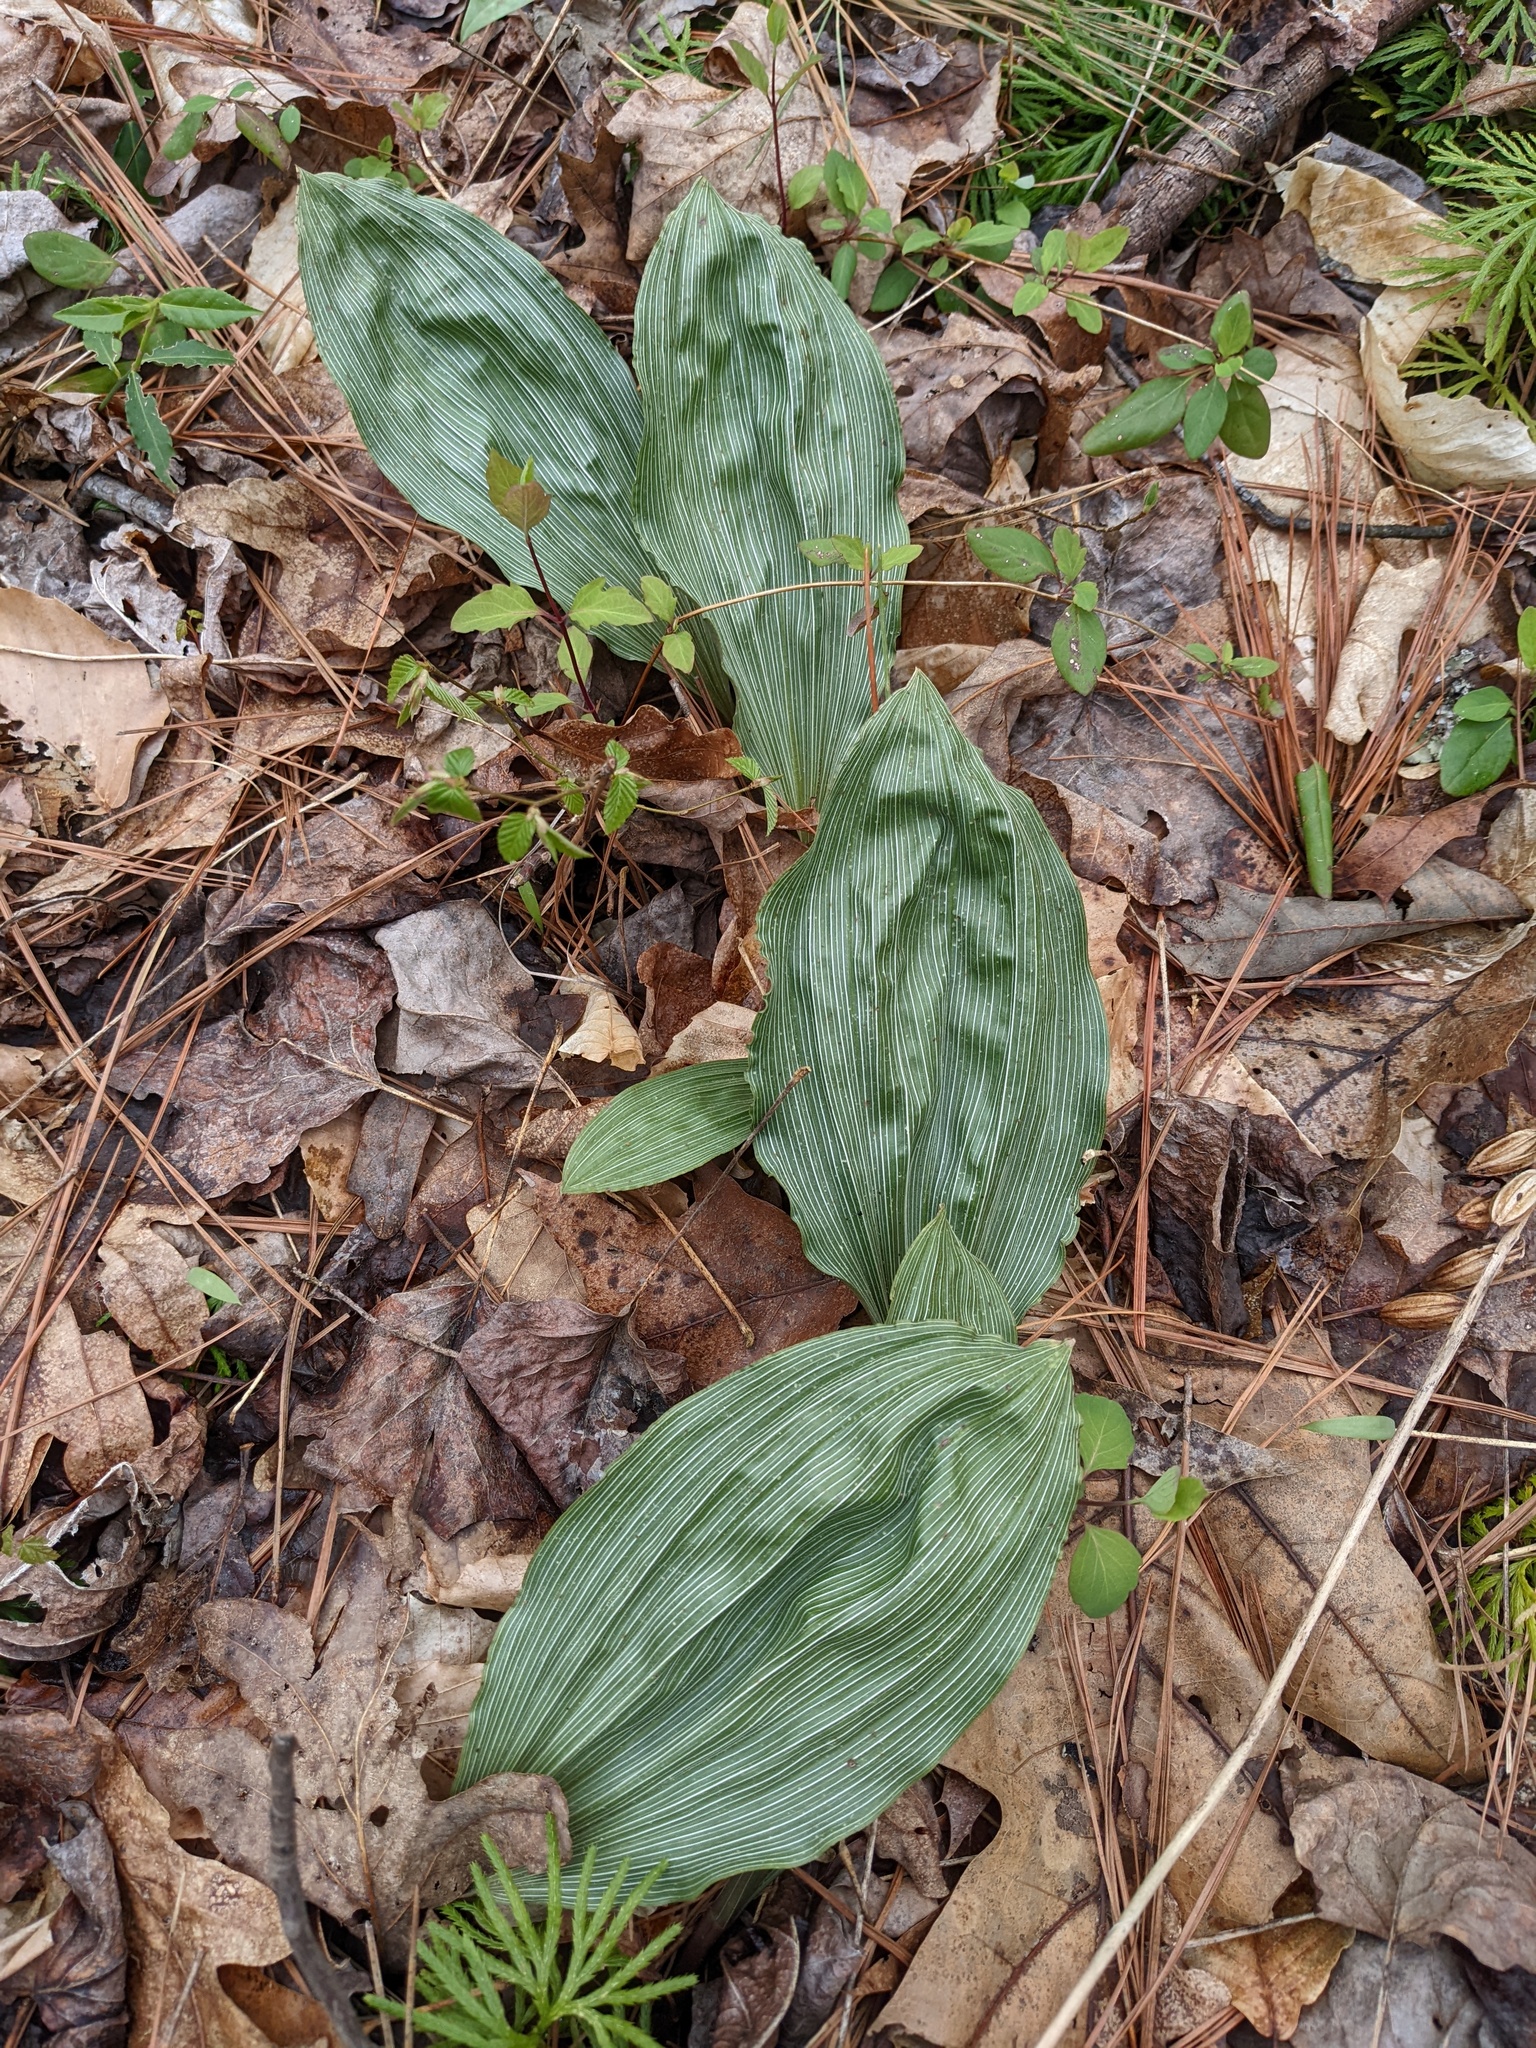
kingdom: Plantae
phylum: Tracheophyta
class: Liliopsida
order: Asparagales
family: Orchidaceae
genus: Aplectrum
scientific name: Aplectrum hyemale
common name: Adam-and-eve
